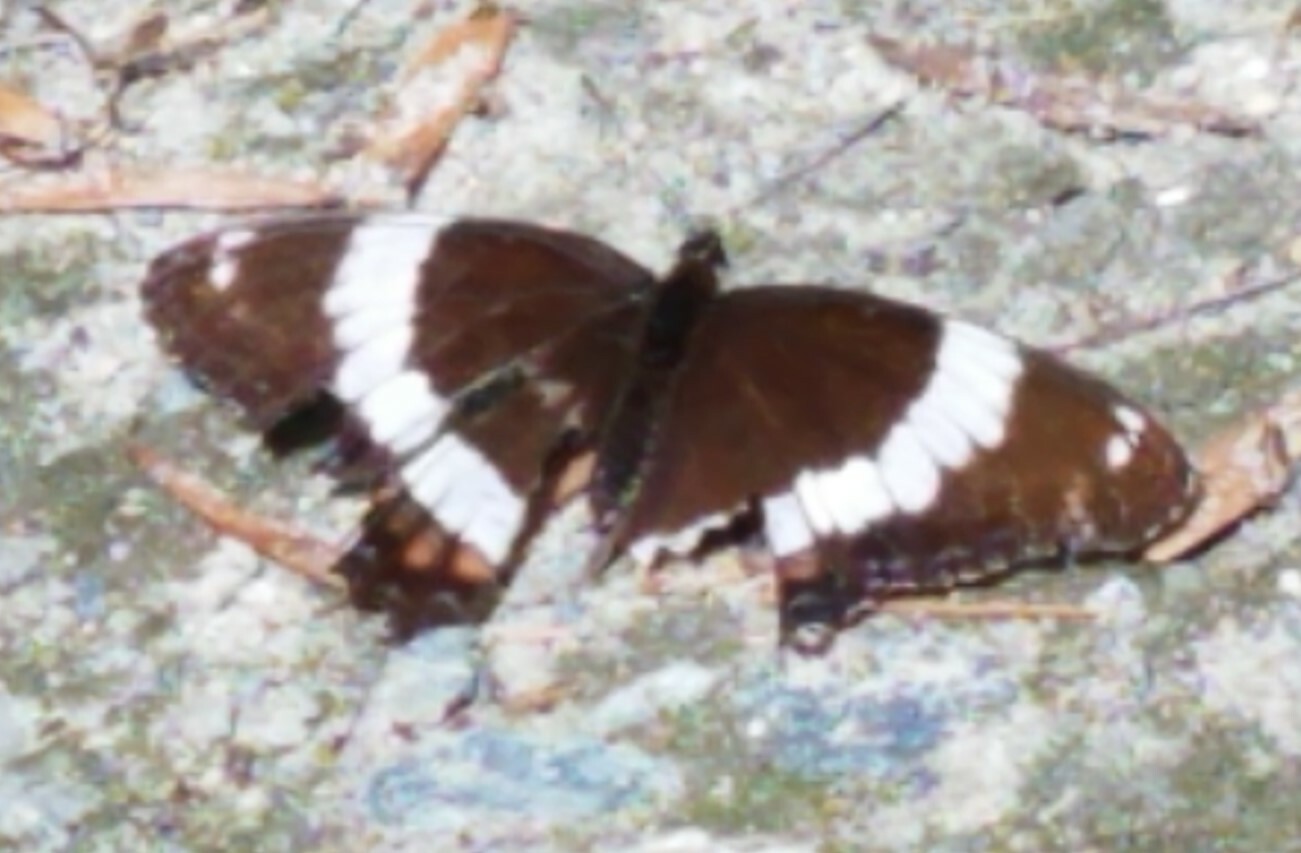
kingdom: Animalia
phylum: Arthropoda
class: Insecta
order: Lepidoptera
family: Nymphalidae
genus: Limenitis
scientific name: Limenitis arthemis
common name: Red-spotted admiral
